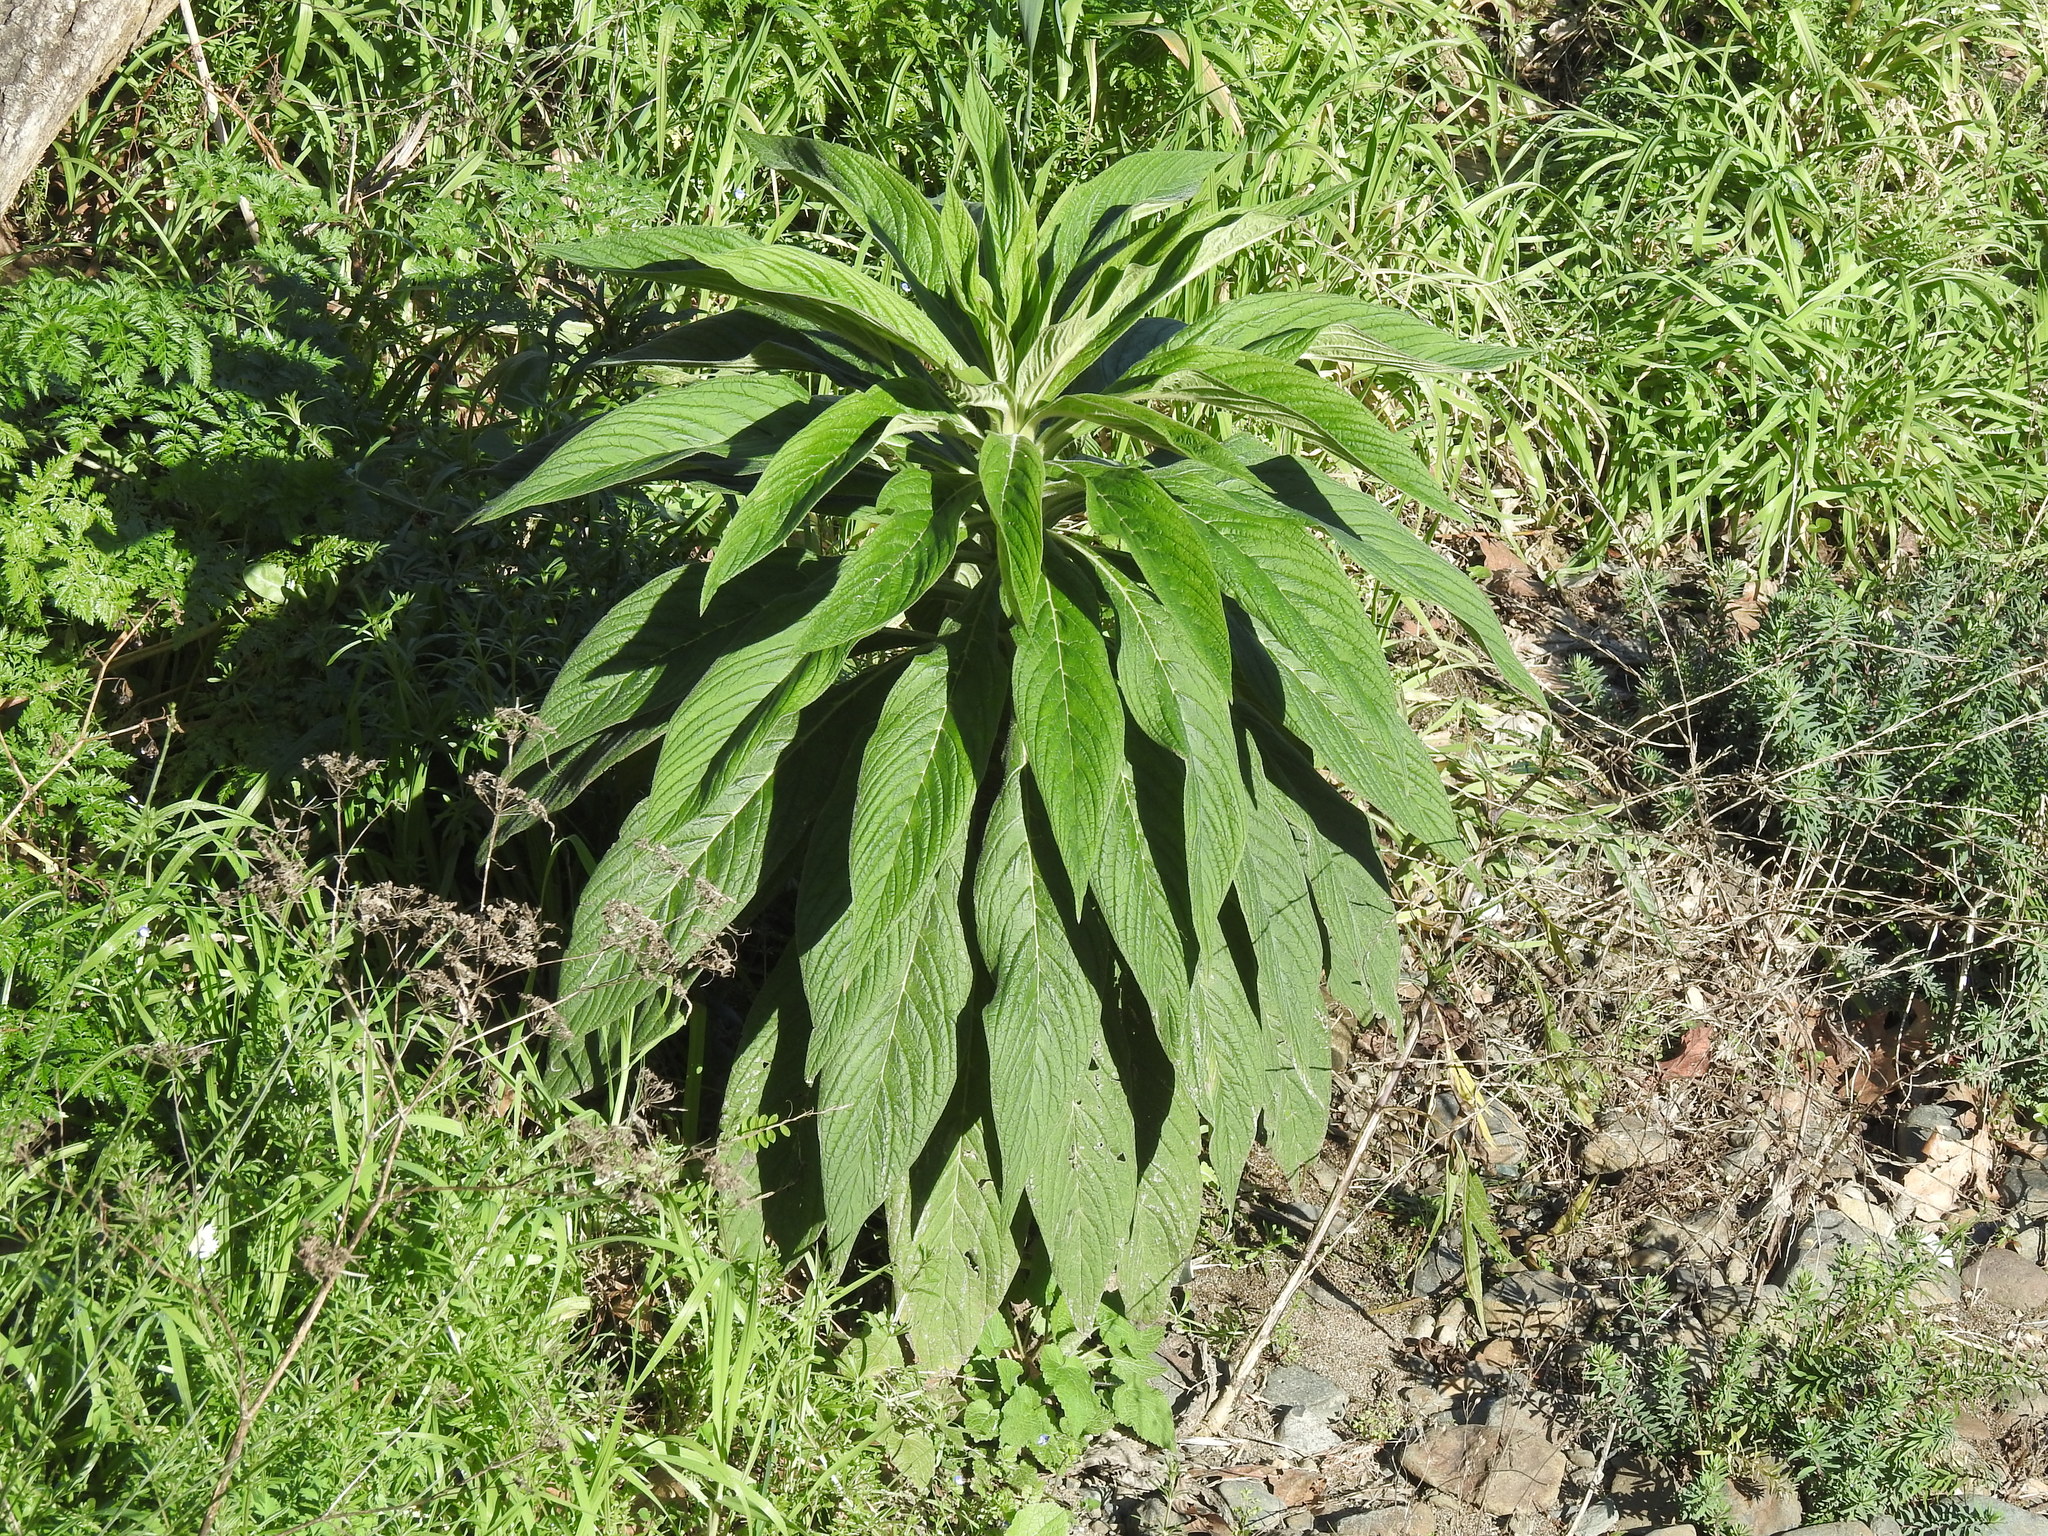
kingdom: Plantae
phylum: Tracheophyta
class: Magnoliopsida
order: Boraginales
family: Boraginaceae
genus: Echium
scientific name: Echium pininana
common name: Giant viper's-bugloss
